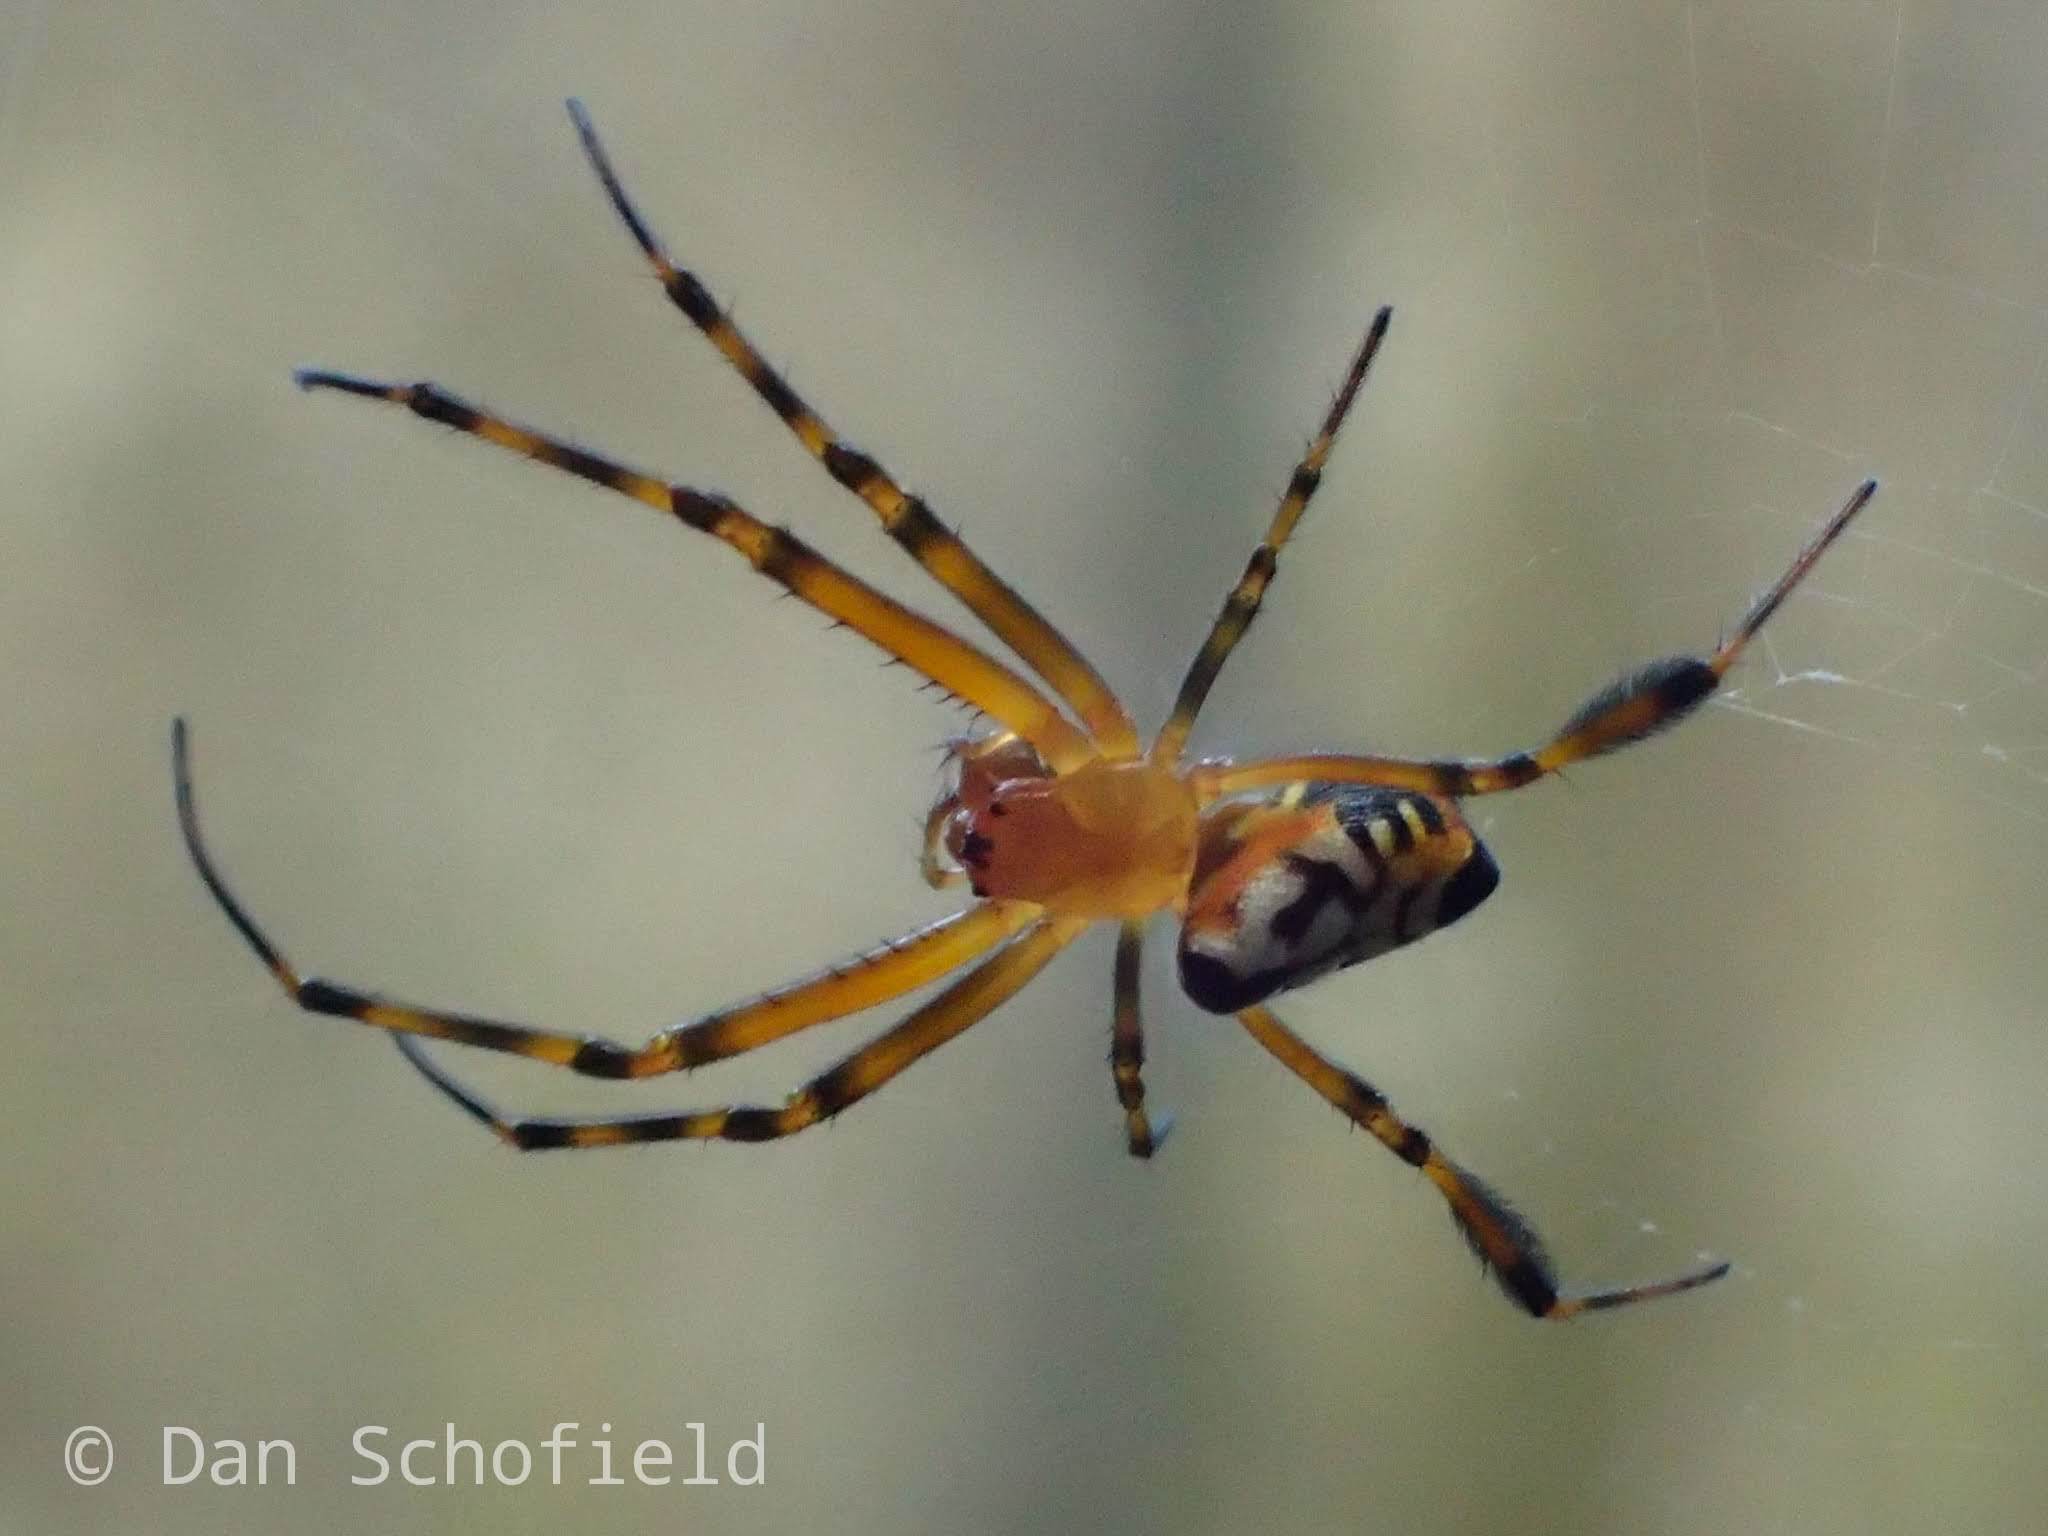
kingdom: Animalia
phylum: Arthropoda
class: Arachnida
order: Araneae
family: Tetragnathidae
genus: Leucauge
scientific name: Leucauge fastigata
